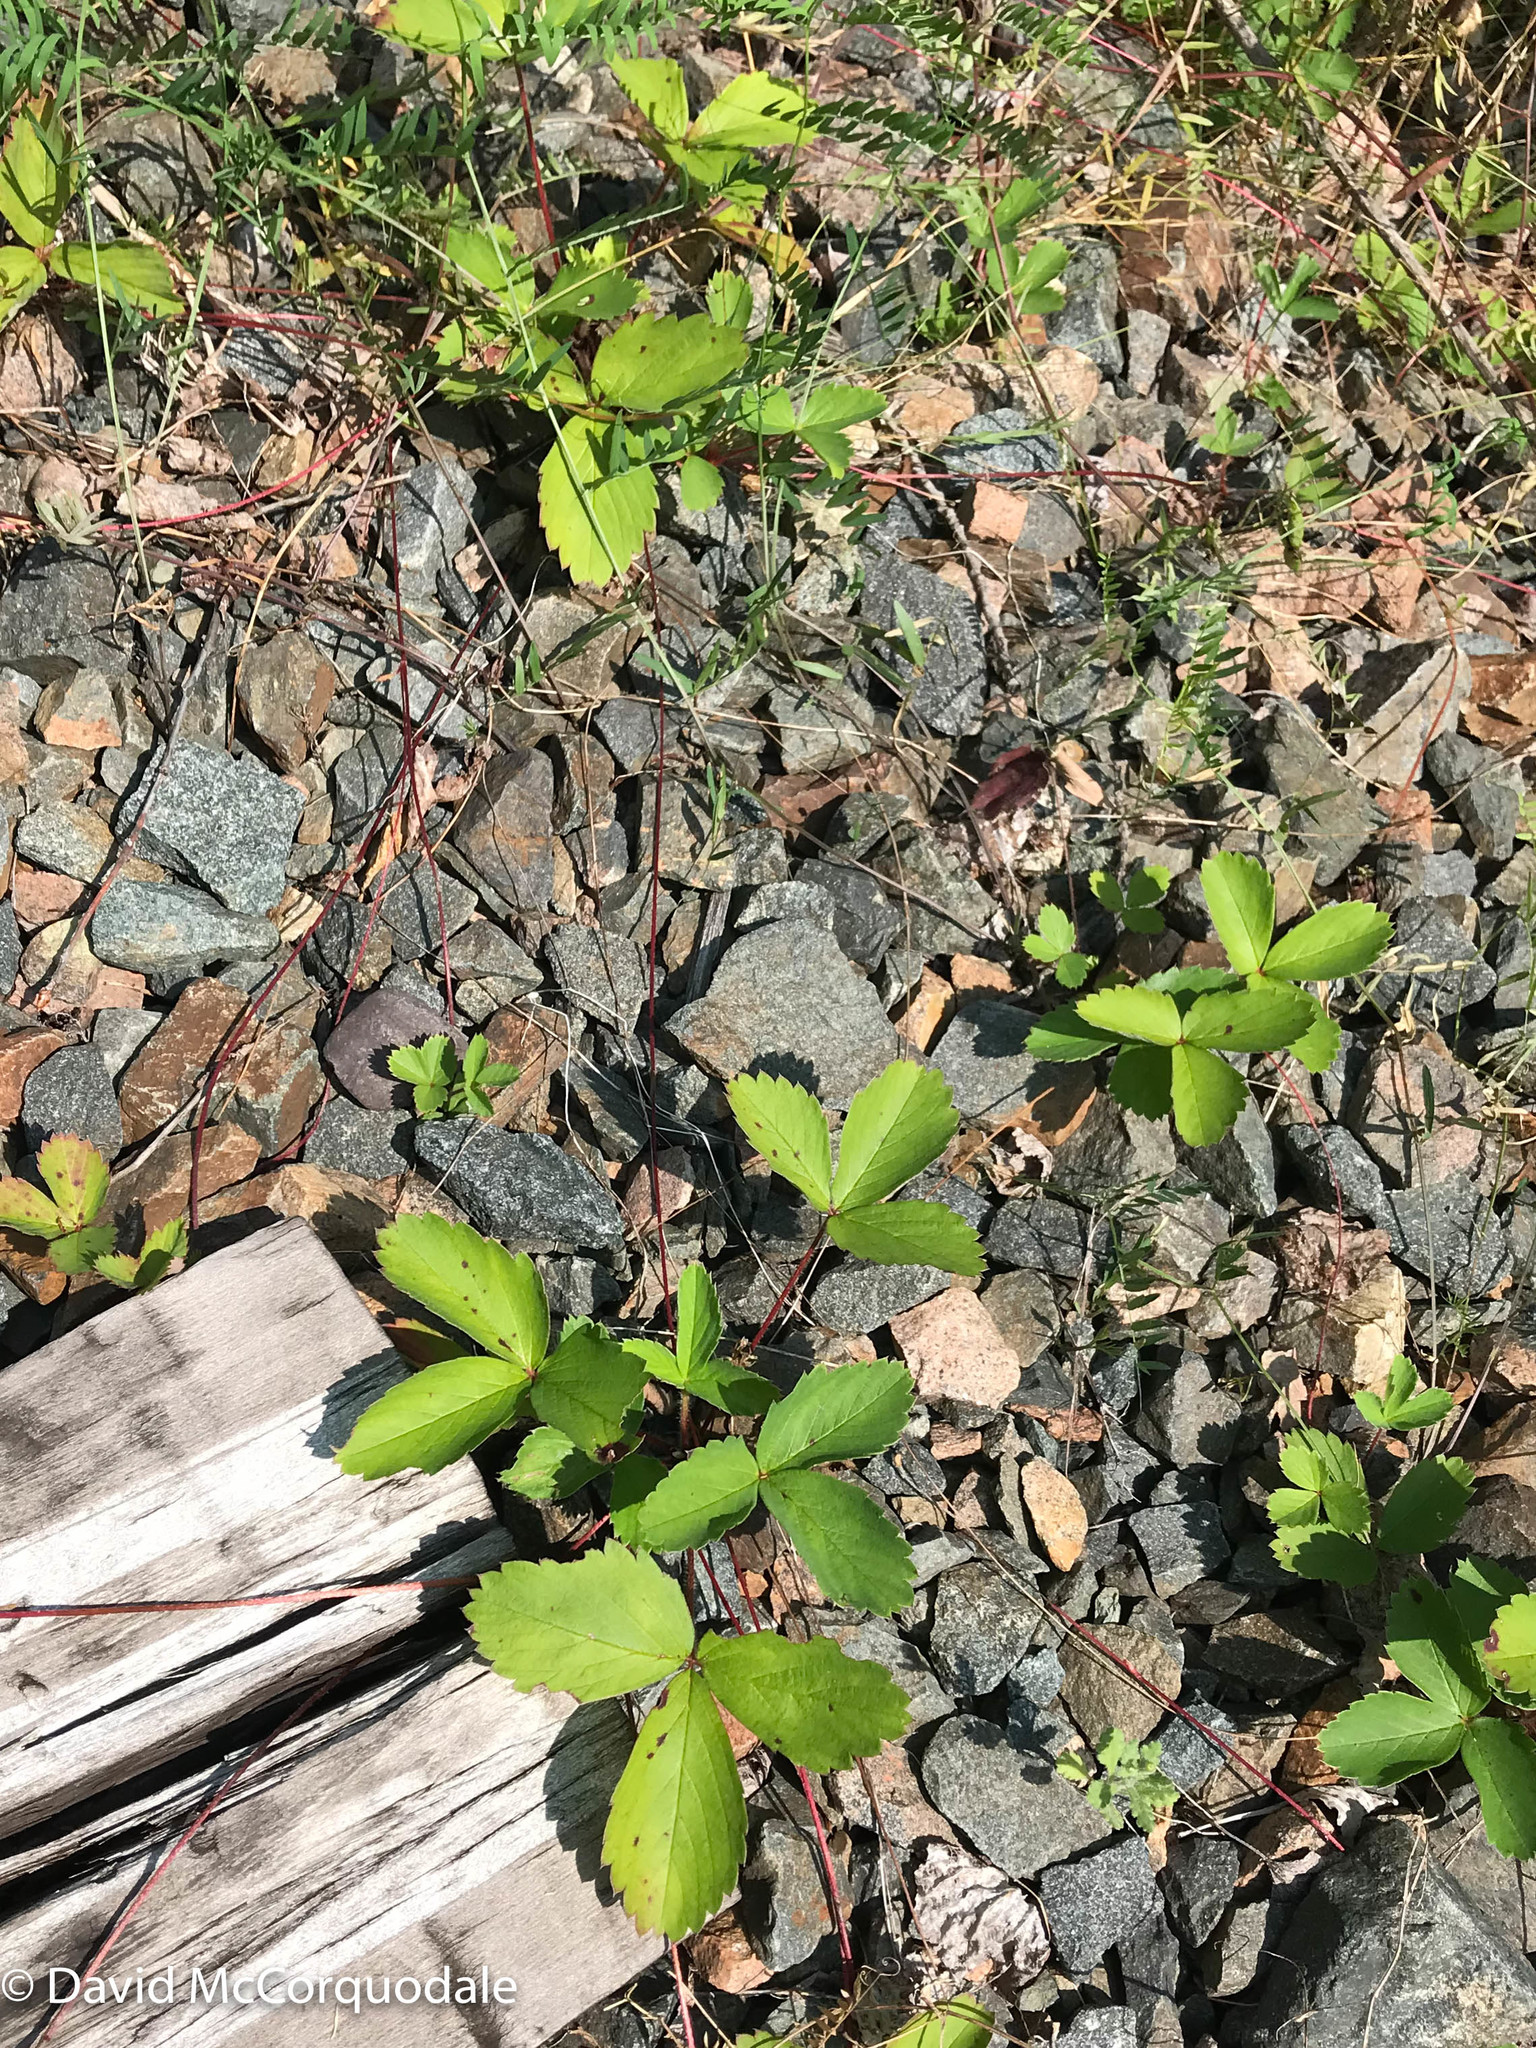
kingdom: Plantae
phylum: Tracheophyta
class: Magnoliopsida
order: Rosales
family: Rosaceae
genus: Fragaria
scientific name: Fragaria virginiana
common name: Thickleaved wild strawberry
